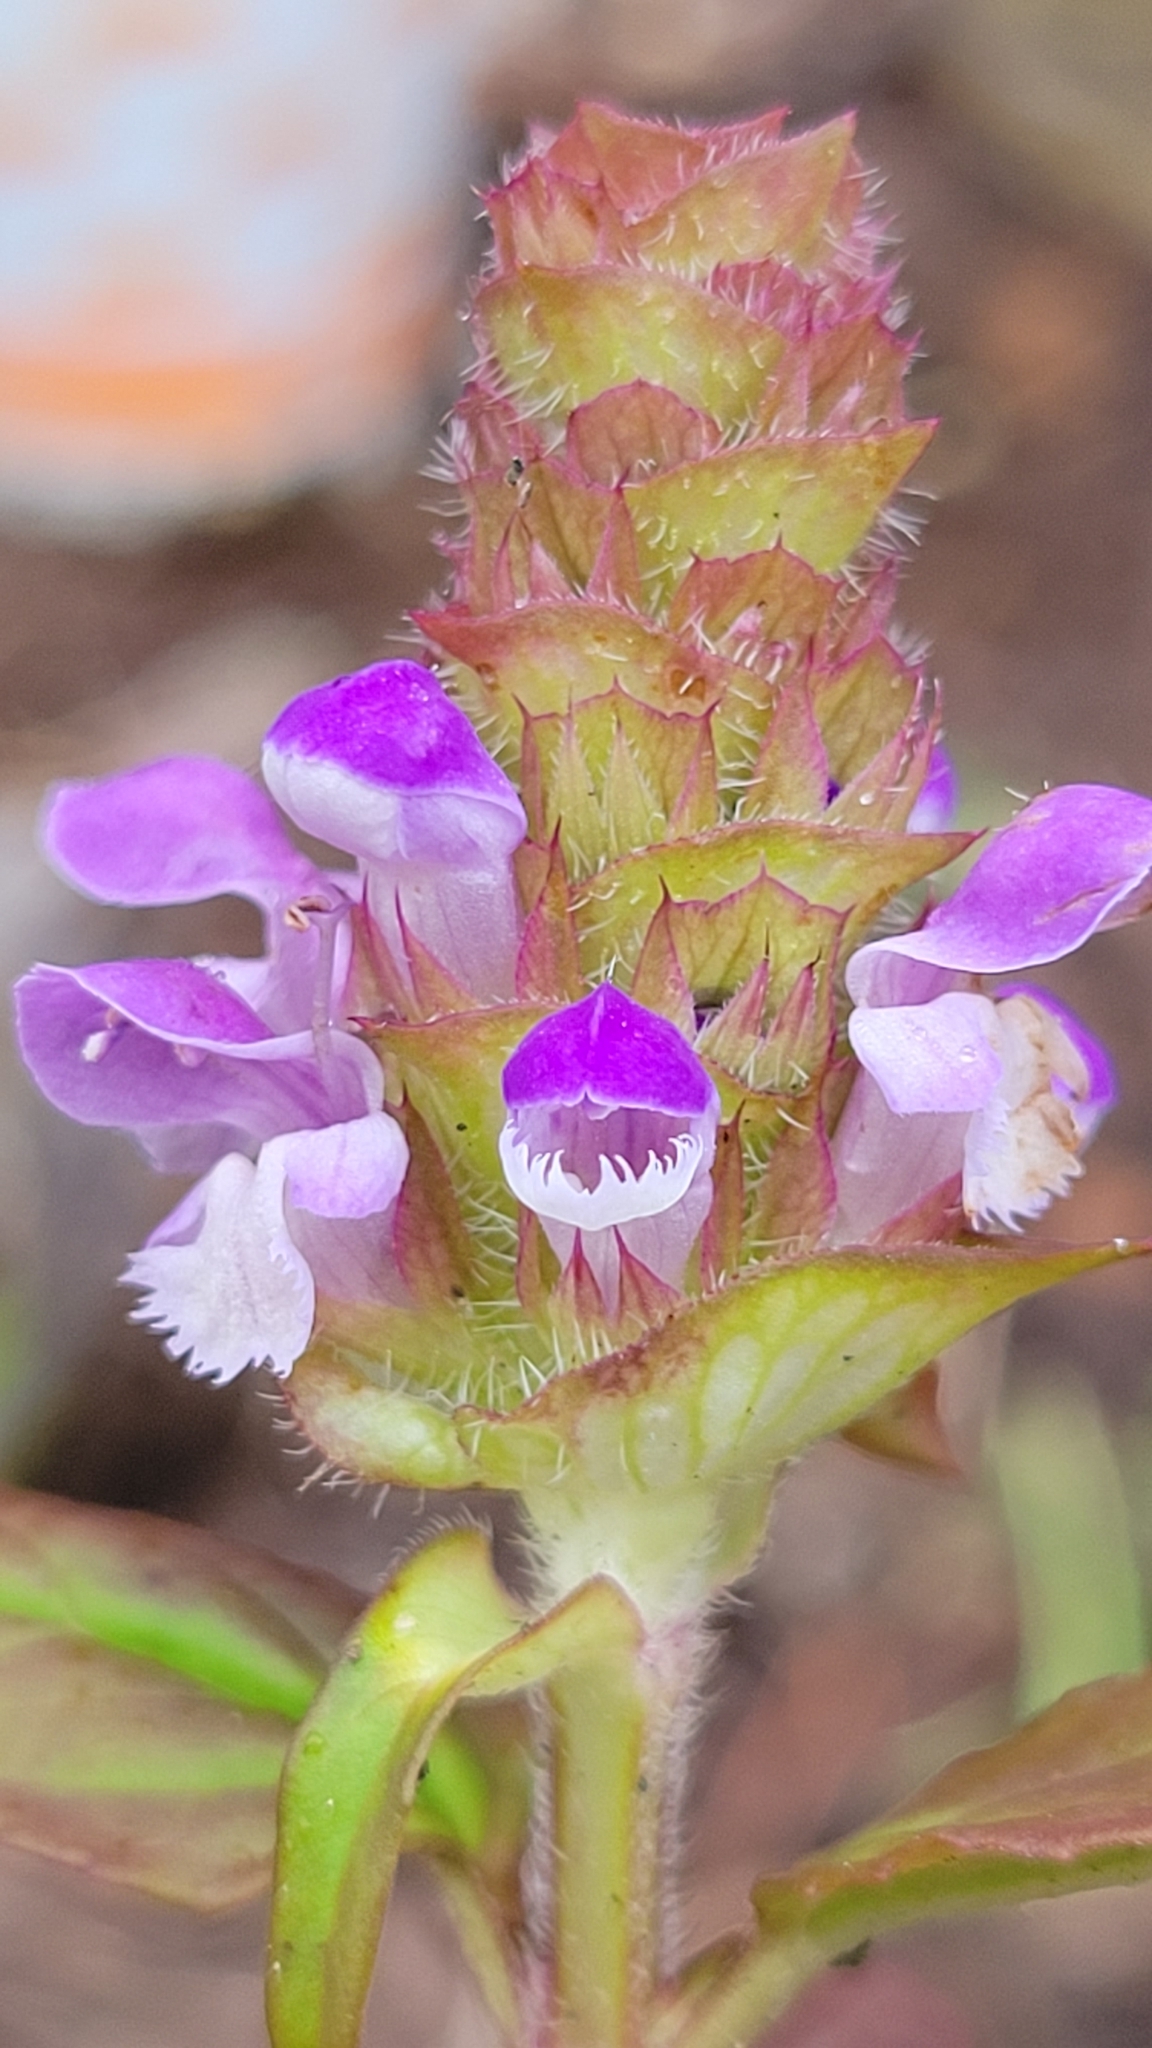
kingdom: Plantae
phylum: Tracheophyta
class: Magnoliopsida
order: Lamiales
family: Lamiaceae
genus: Prunella
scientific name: Prunella vulgaris
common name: Heal-all
